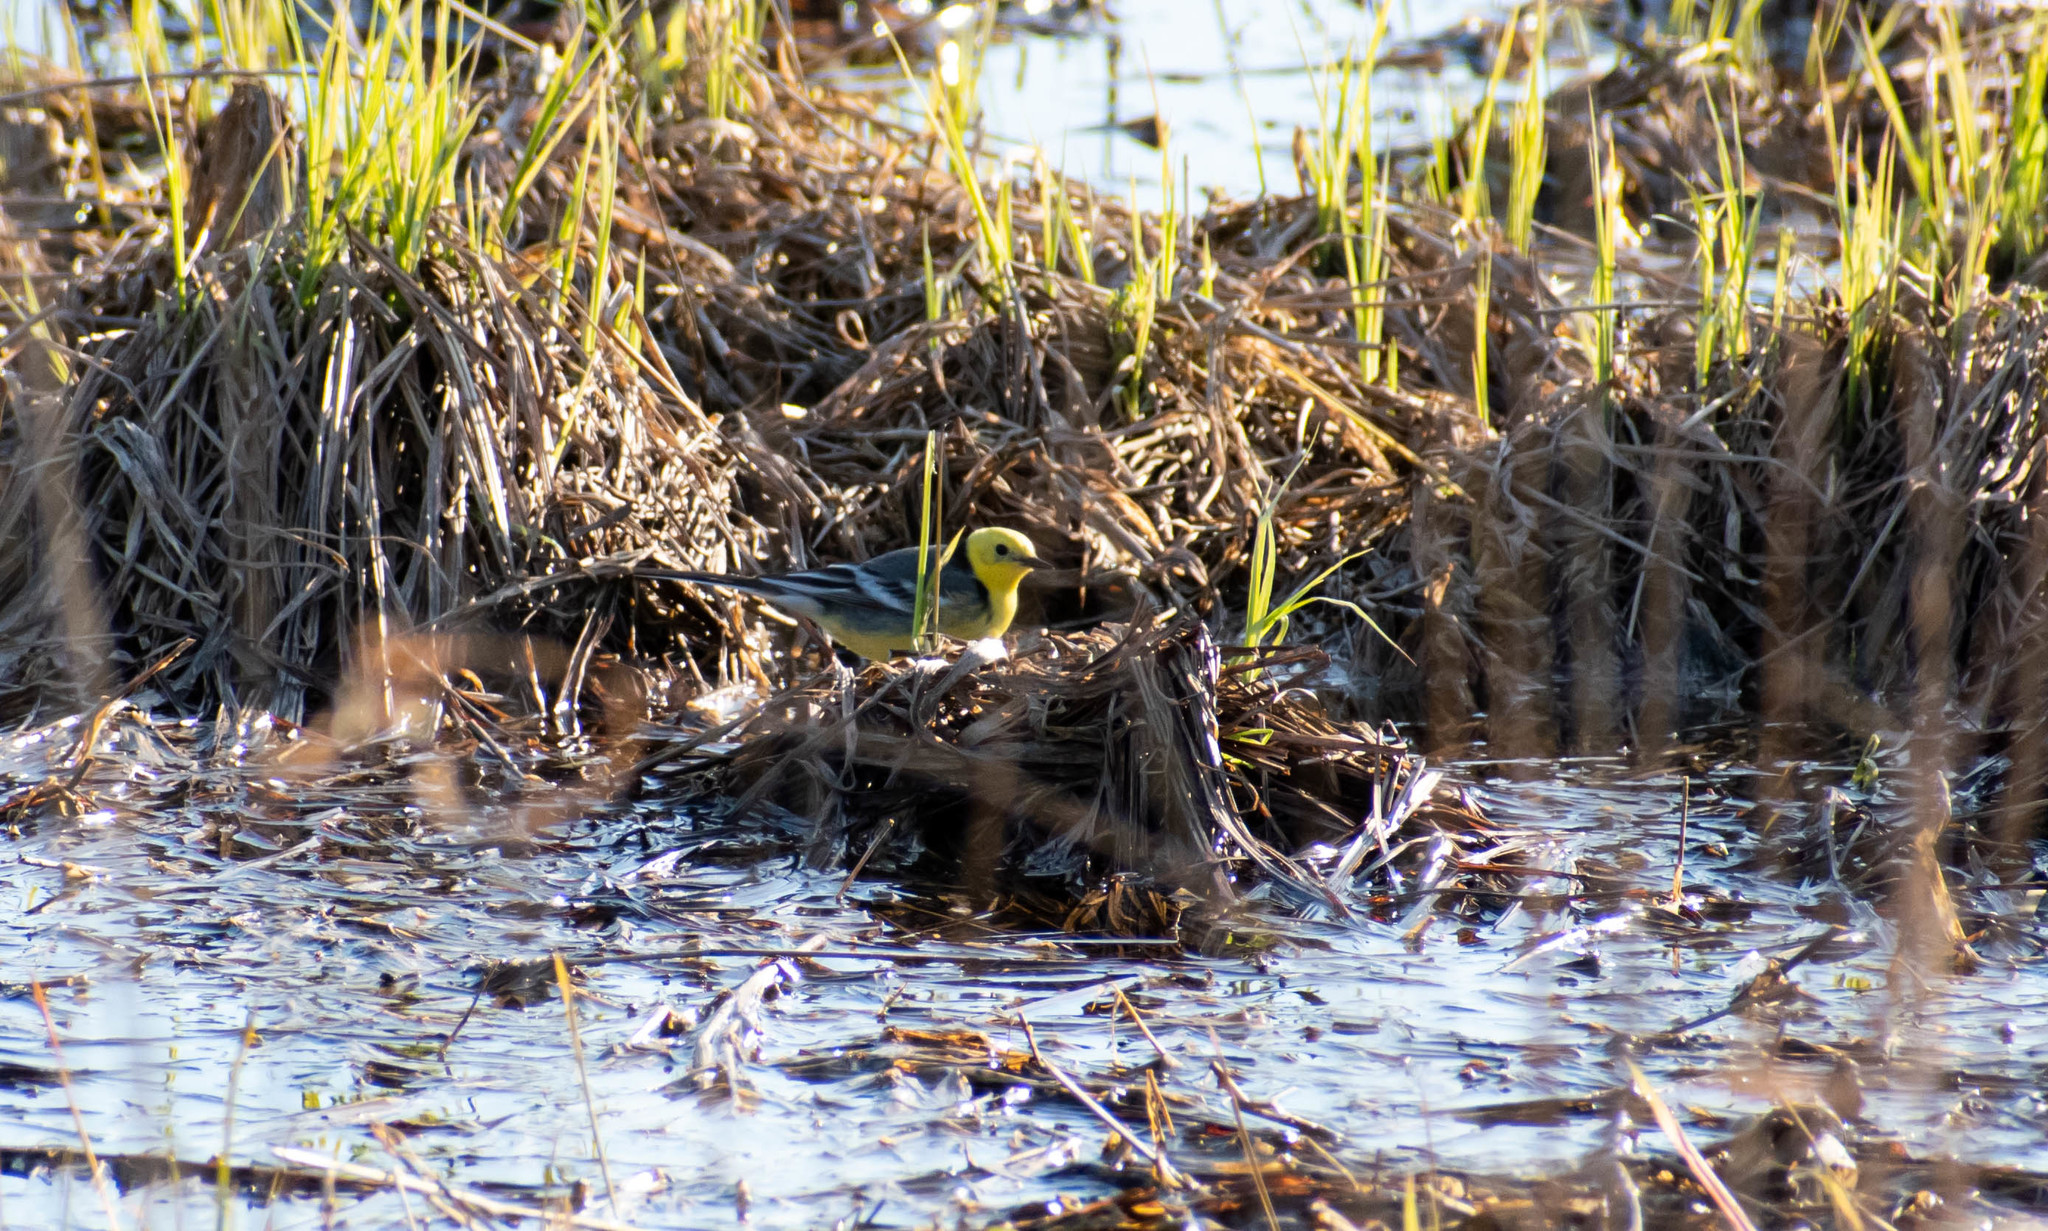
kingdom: Animalia
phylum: Chordata
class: Aves
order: Passeriformes
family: Motacillidae
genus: Motacilla
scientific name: Motacilla citreola
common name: Citrine wagtail
